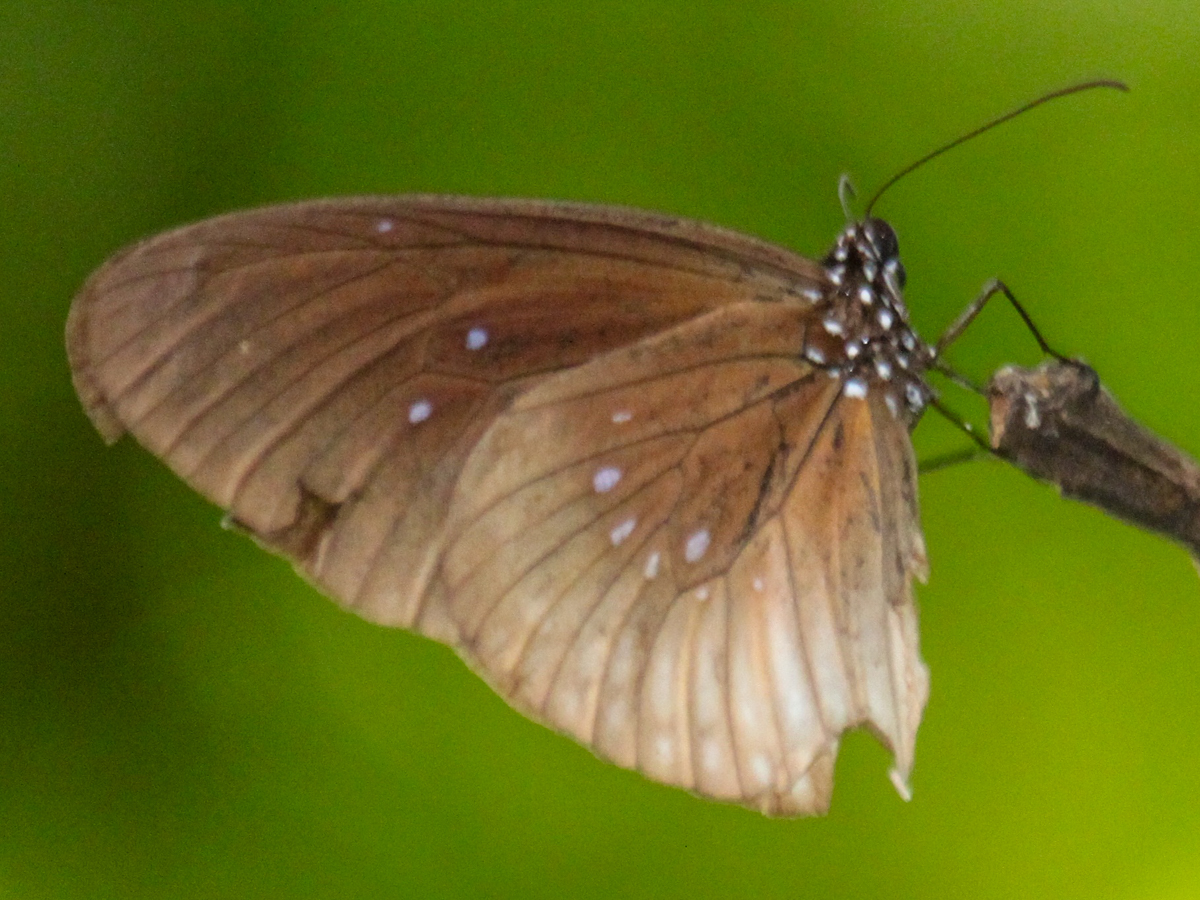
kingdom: Animalia
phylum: Arthropoda
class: Insecta
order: Lepidoptera
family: Nymphalidae
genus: Euploea
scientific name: Euploea eyndhovii
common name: Striped black crow butterfly
